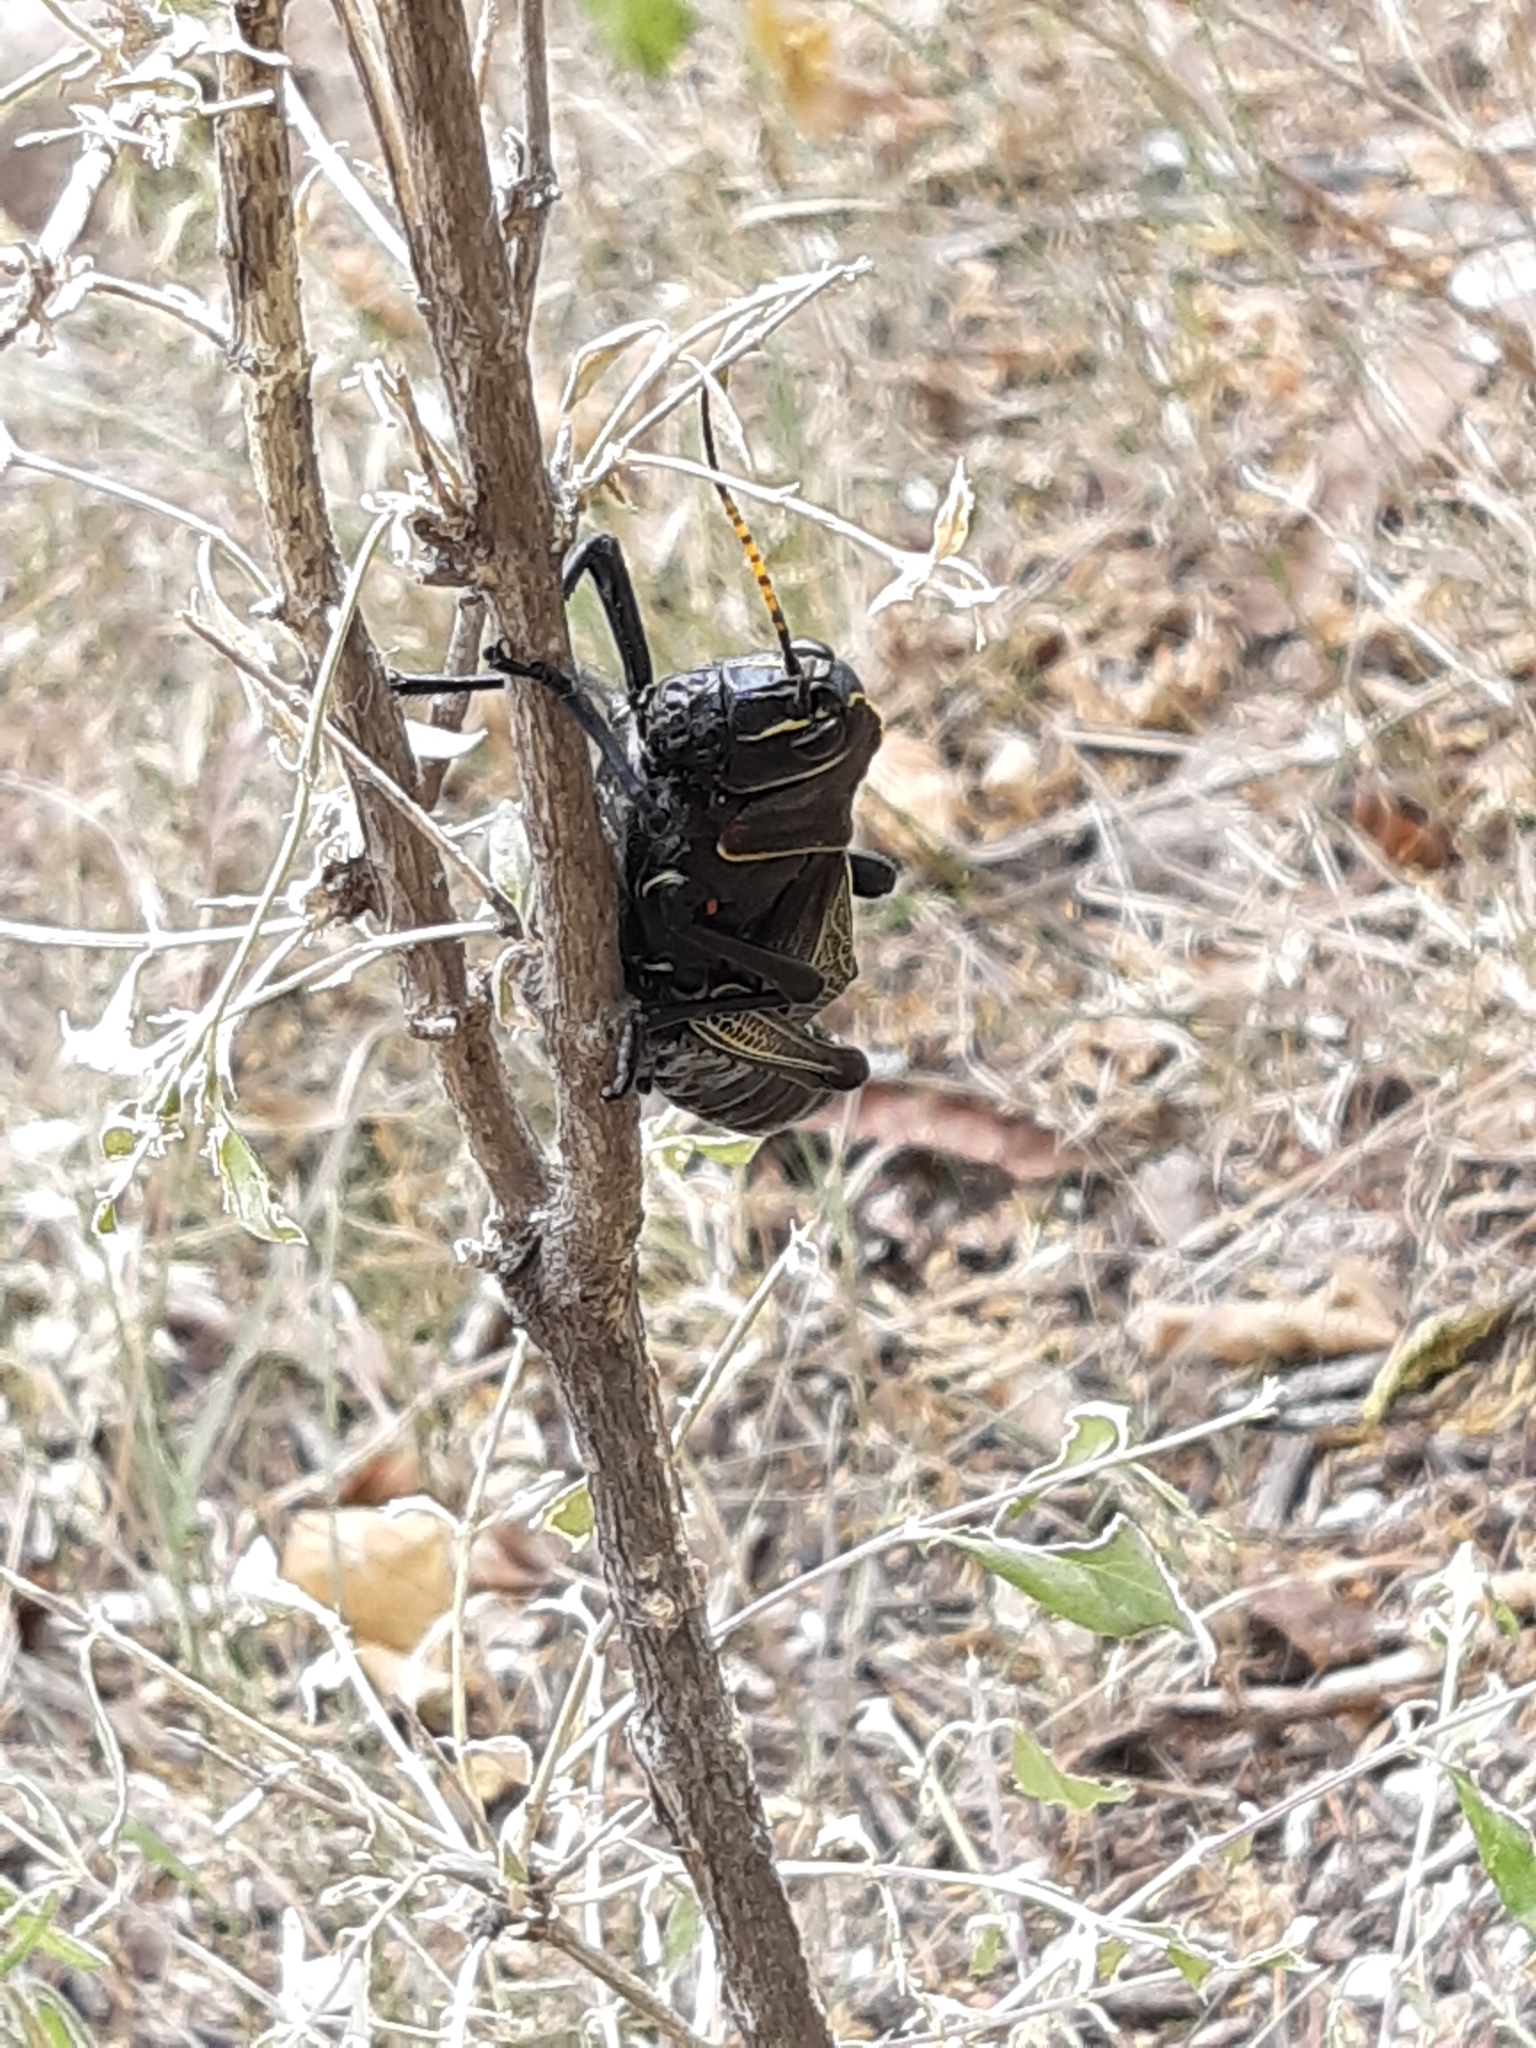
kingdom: Animalia
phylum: Arthropoda
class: Insecta
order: Orthoptera
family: Romaleidae
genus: Romalea
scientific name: Romalea
